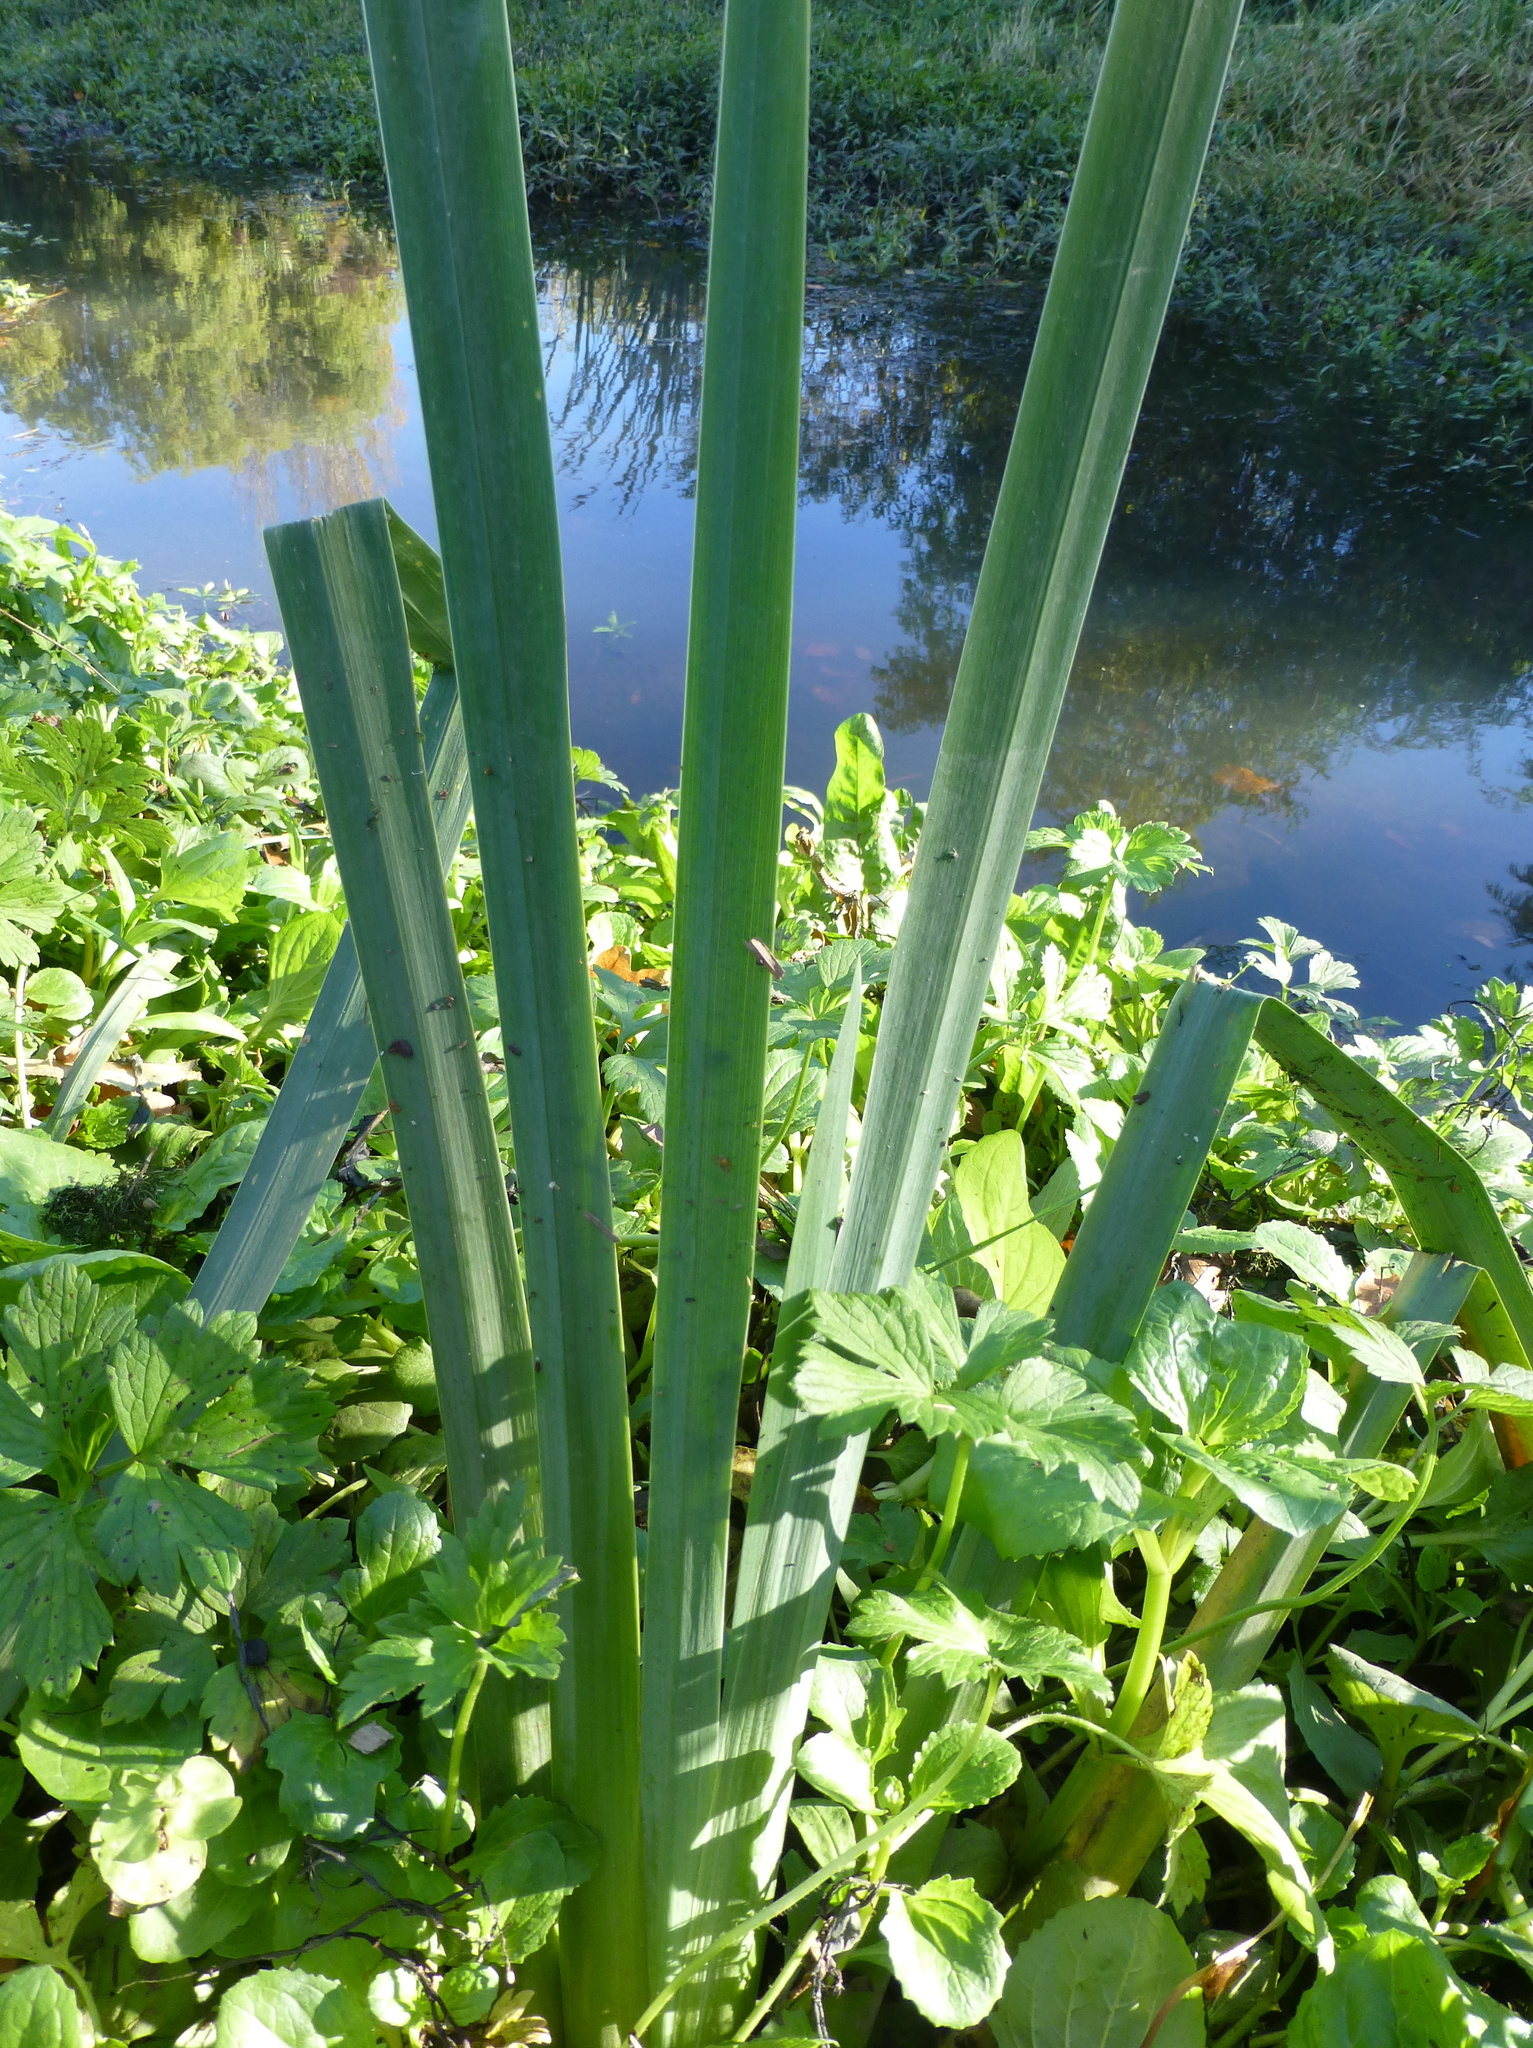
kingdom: Plantae
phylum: Tracheophyta
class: Liliopsida
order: Asparagales
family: Iridaceae
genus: Iris
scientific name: Iris pseudacorus
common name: Yellow flag
